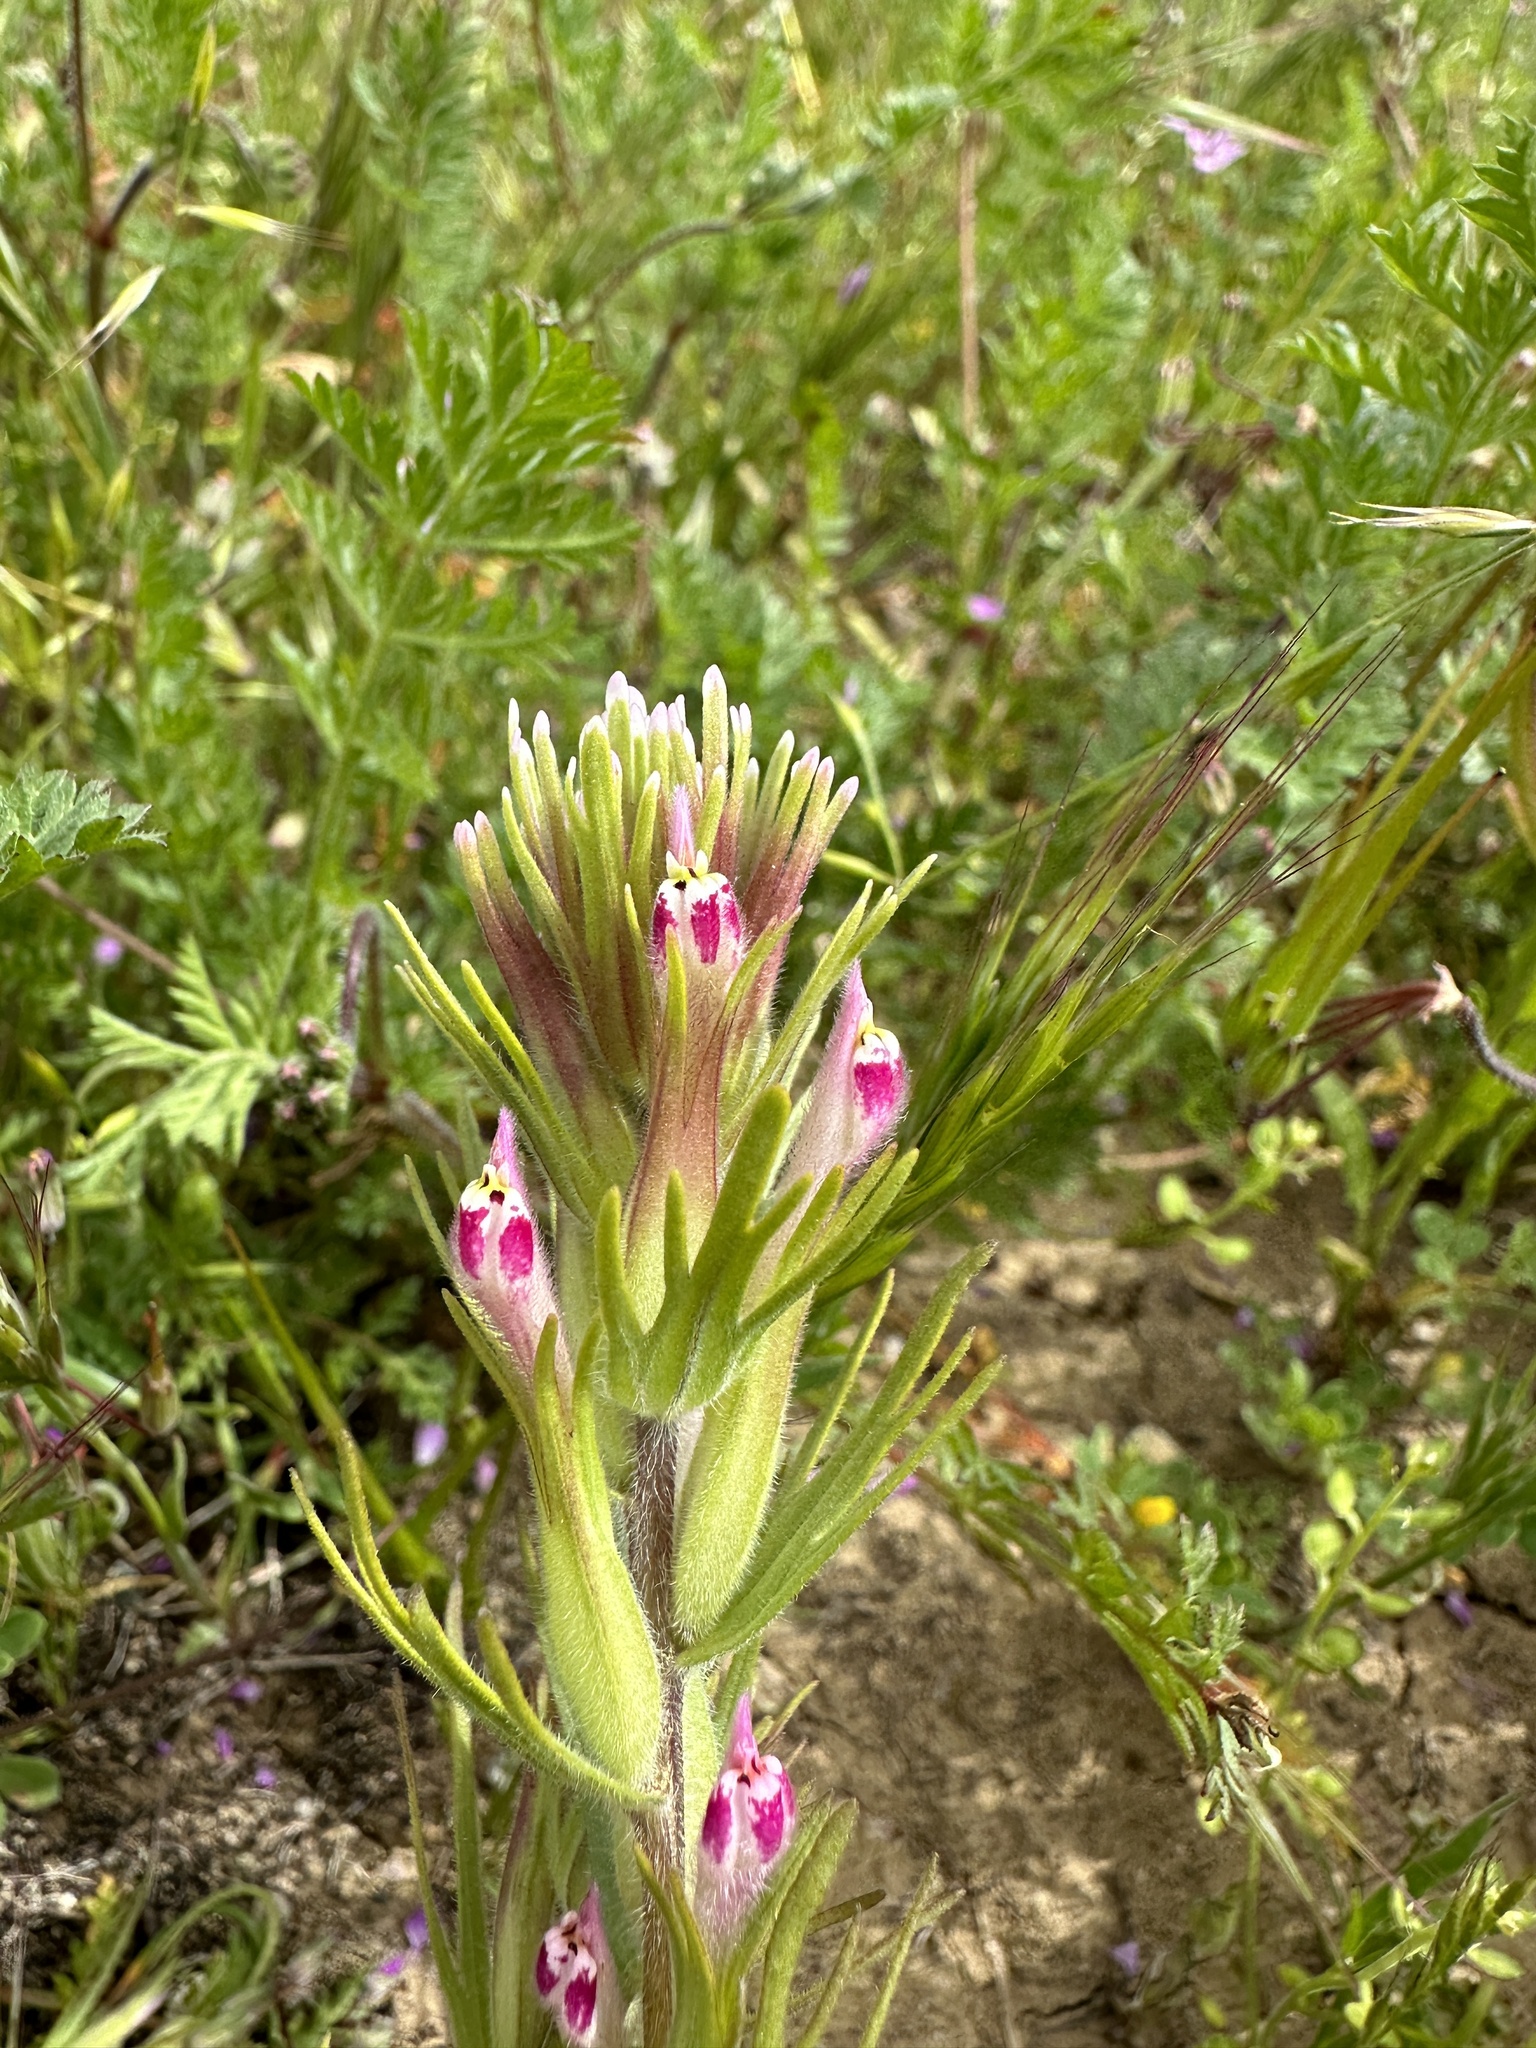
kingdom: Plantae
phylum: Tracheophyta
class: Magnoliopsida
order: Lamiales
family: Orobanchaceae
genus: Castilleja
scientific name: Castilleja brevistyla
